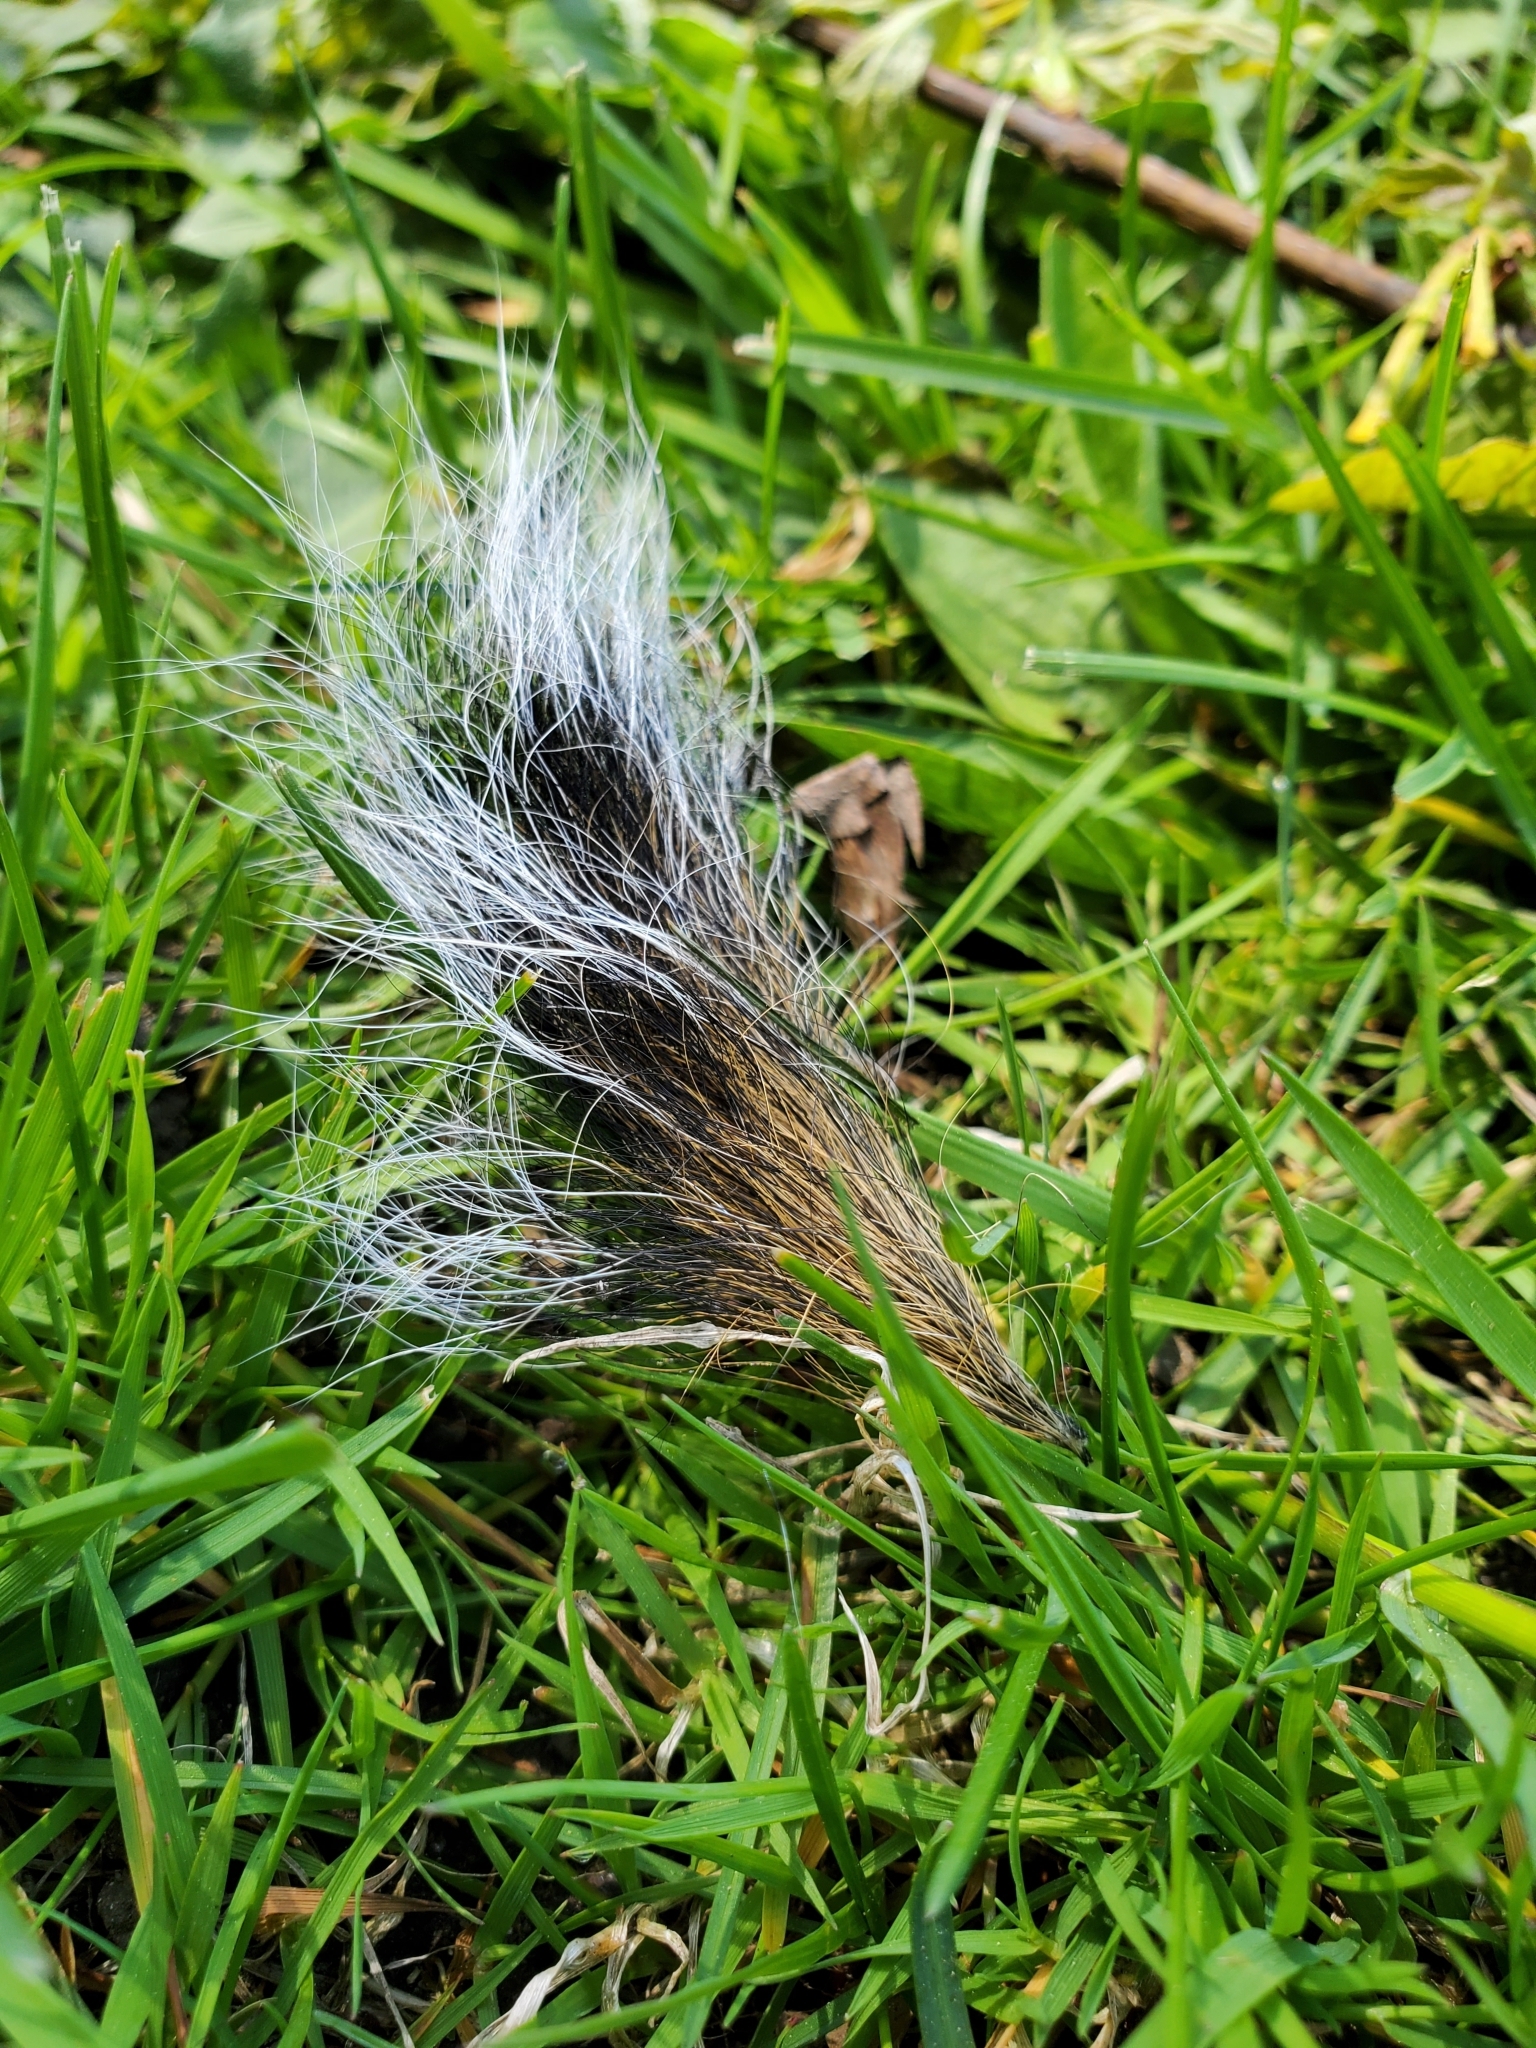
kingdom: Animalia
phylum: Chordata
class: Mammalia
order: Rodentia
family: Sciuridae
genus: Sciurus
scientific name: Sciurus carolinensis
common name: Eastern gray squirrel
